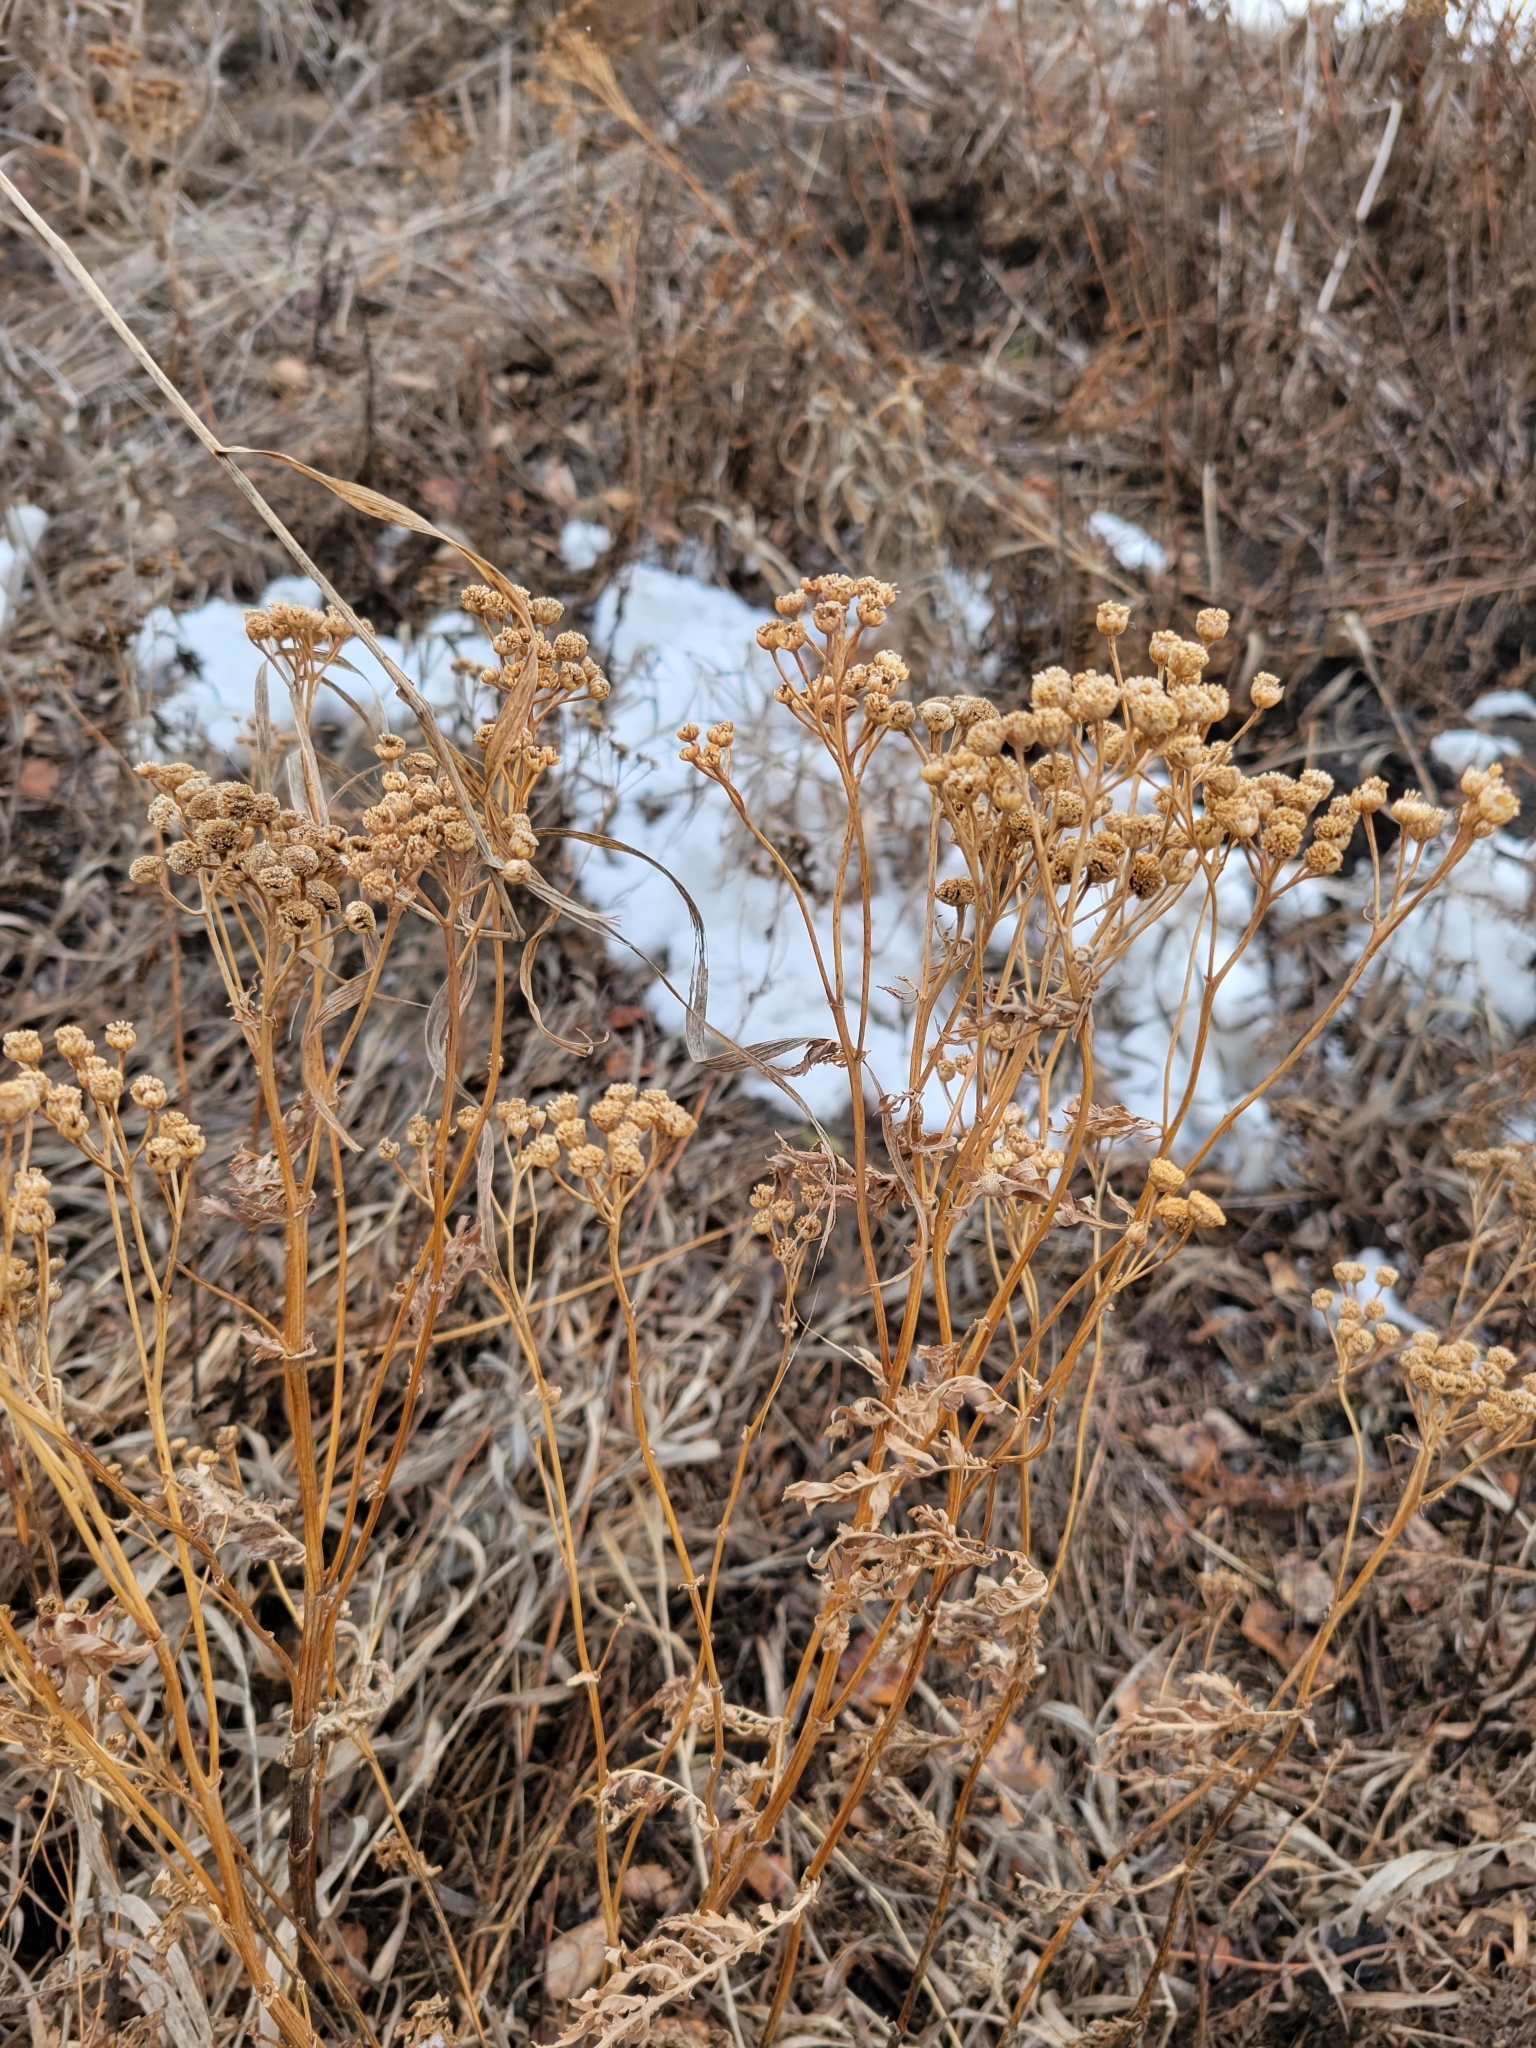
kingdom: Plantae
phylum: Tracheophyta
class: Magnoliopsida
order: Asterales
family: Asteraceae
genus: Tanacetum
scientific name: Tanacetum vulgare
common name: Common tansy
